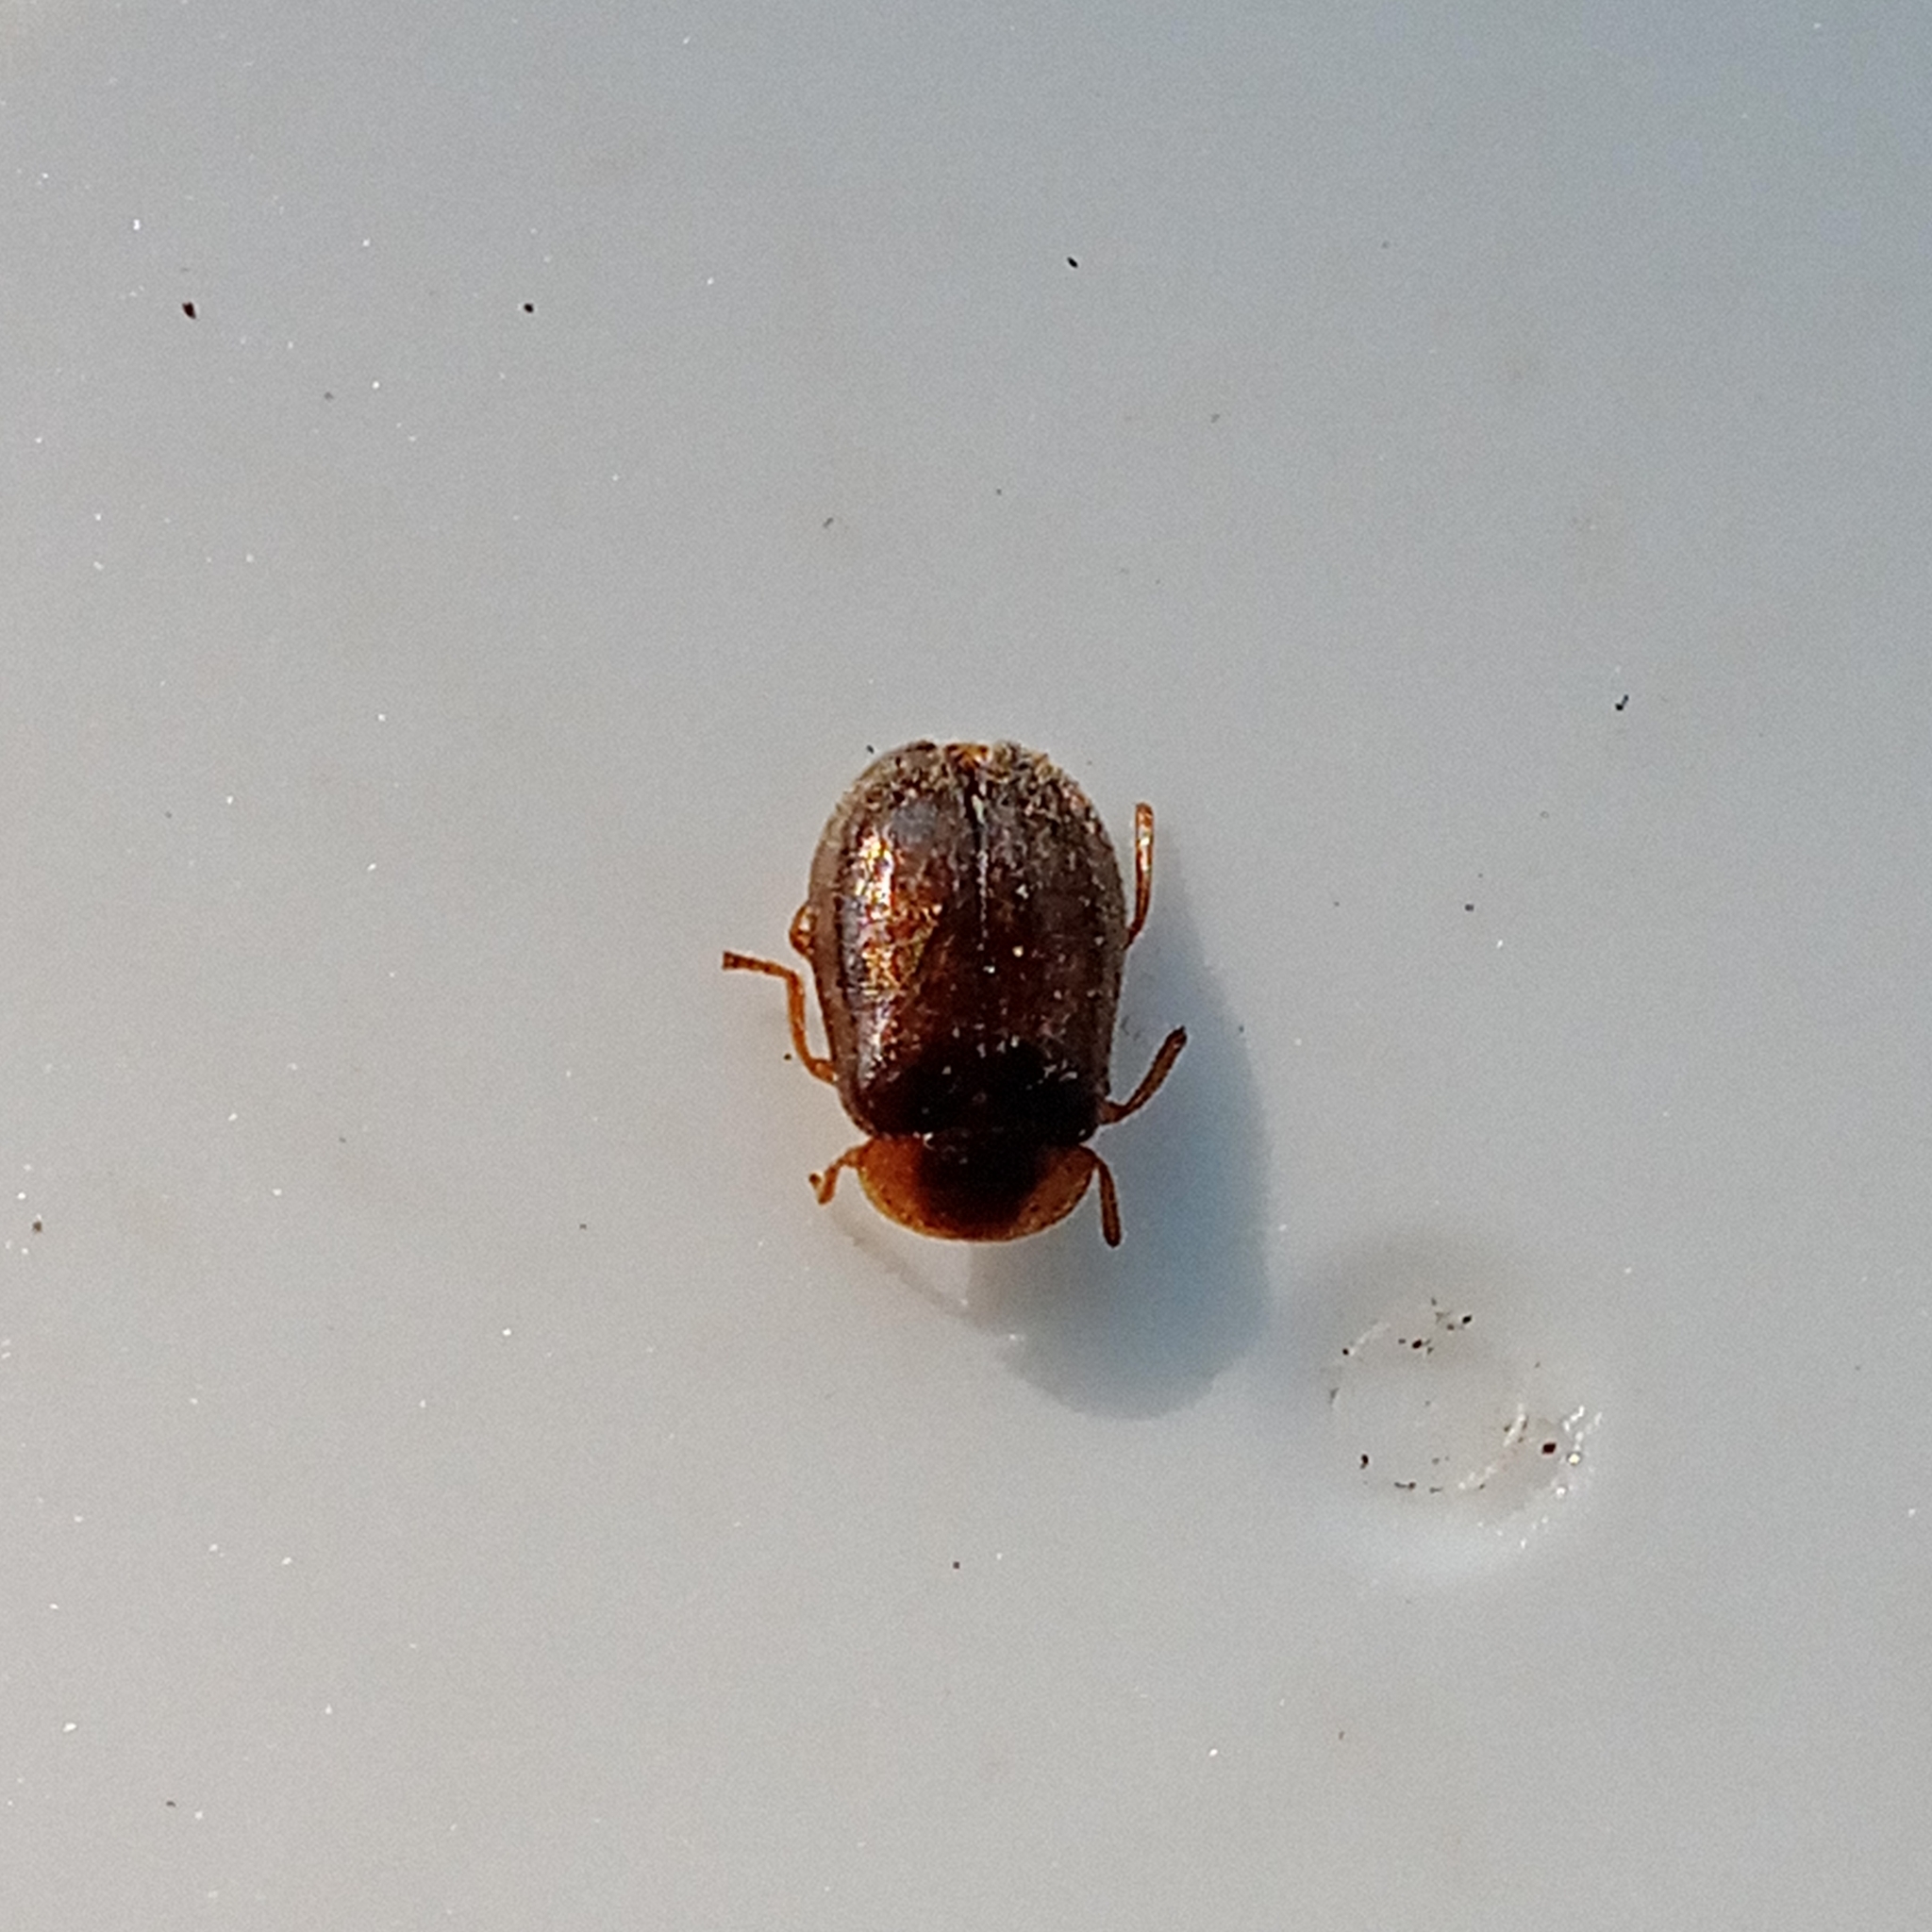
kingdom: Animalia
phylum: Arthropoda
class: Insecta
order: Coleoptera
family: Scirtidae
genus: Microcara
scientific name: Microcara testacea
